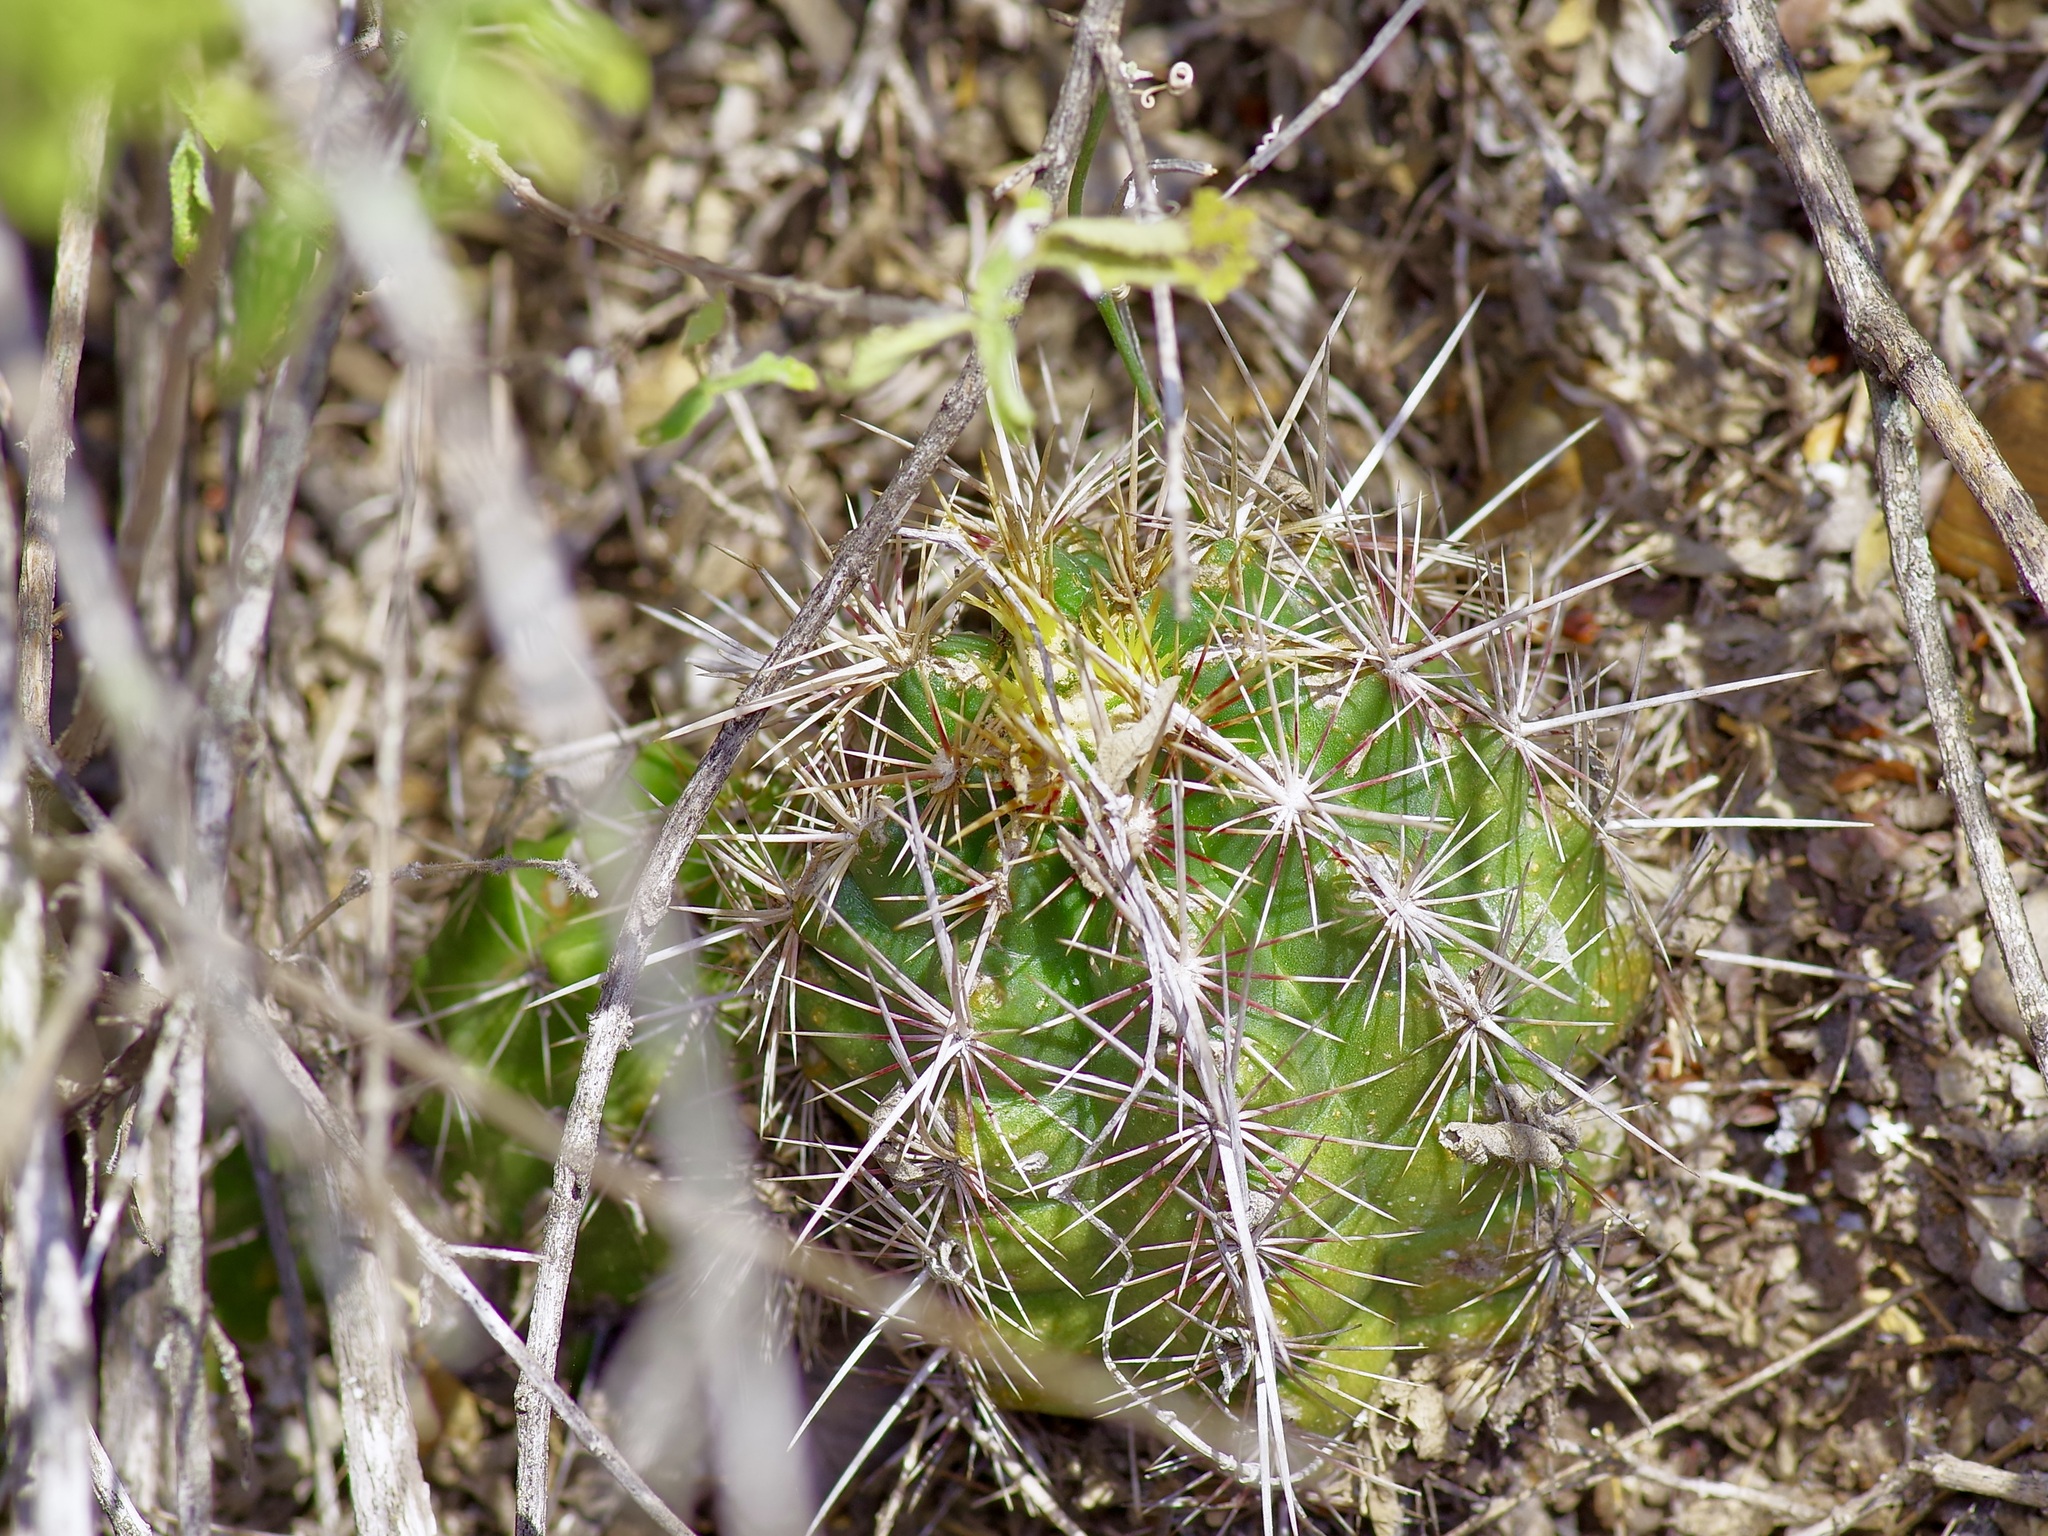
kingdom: Plantae
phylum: Tracheophyta
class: Magnoliopsida
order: Caryophyllales
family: Cactaceae
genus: Thelocactus
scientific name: Thelocactus bicolor
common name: Glory of texas
